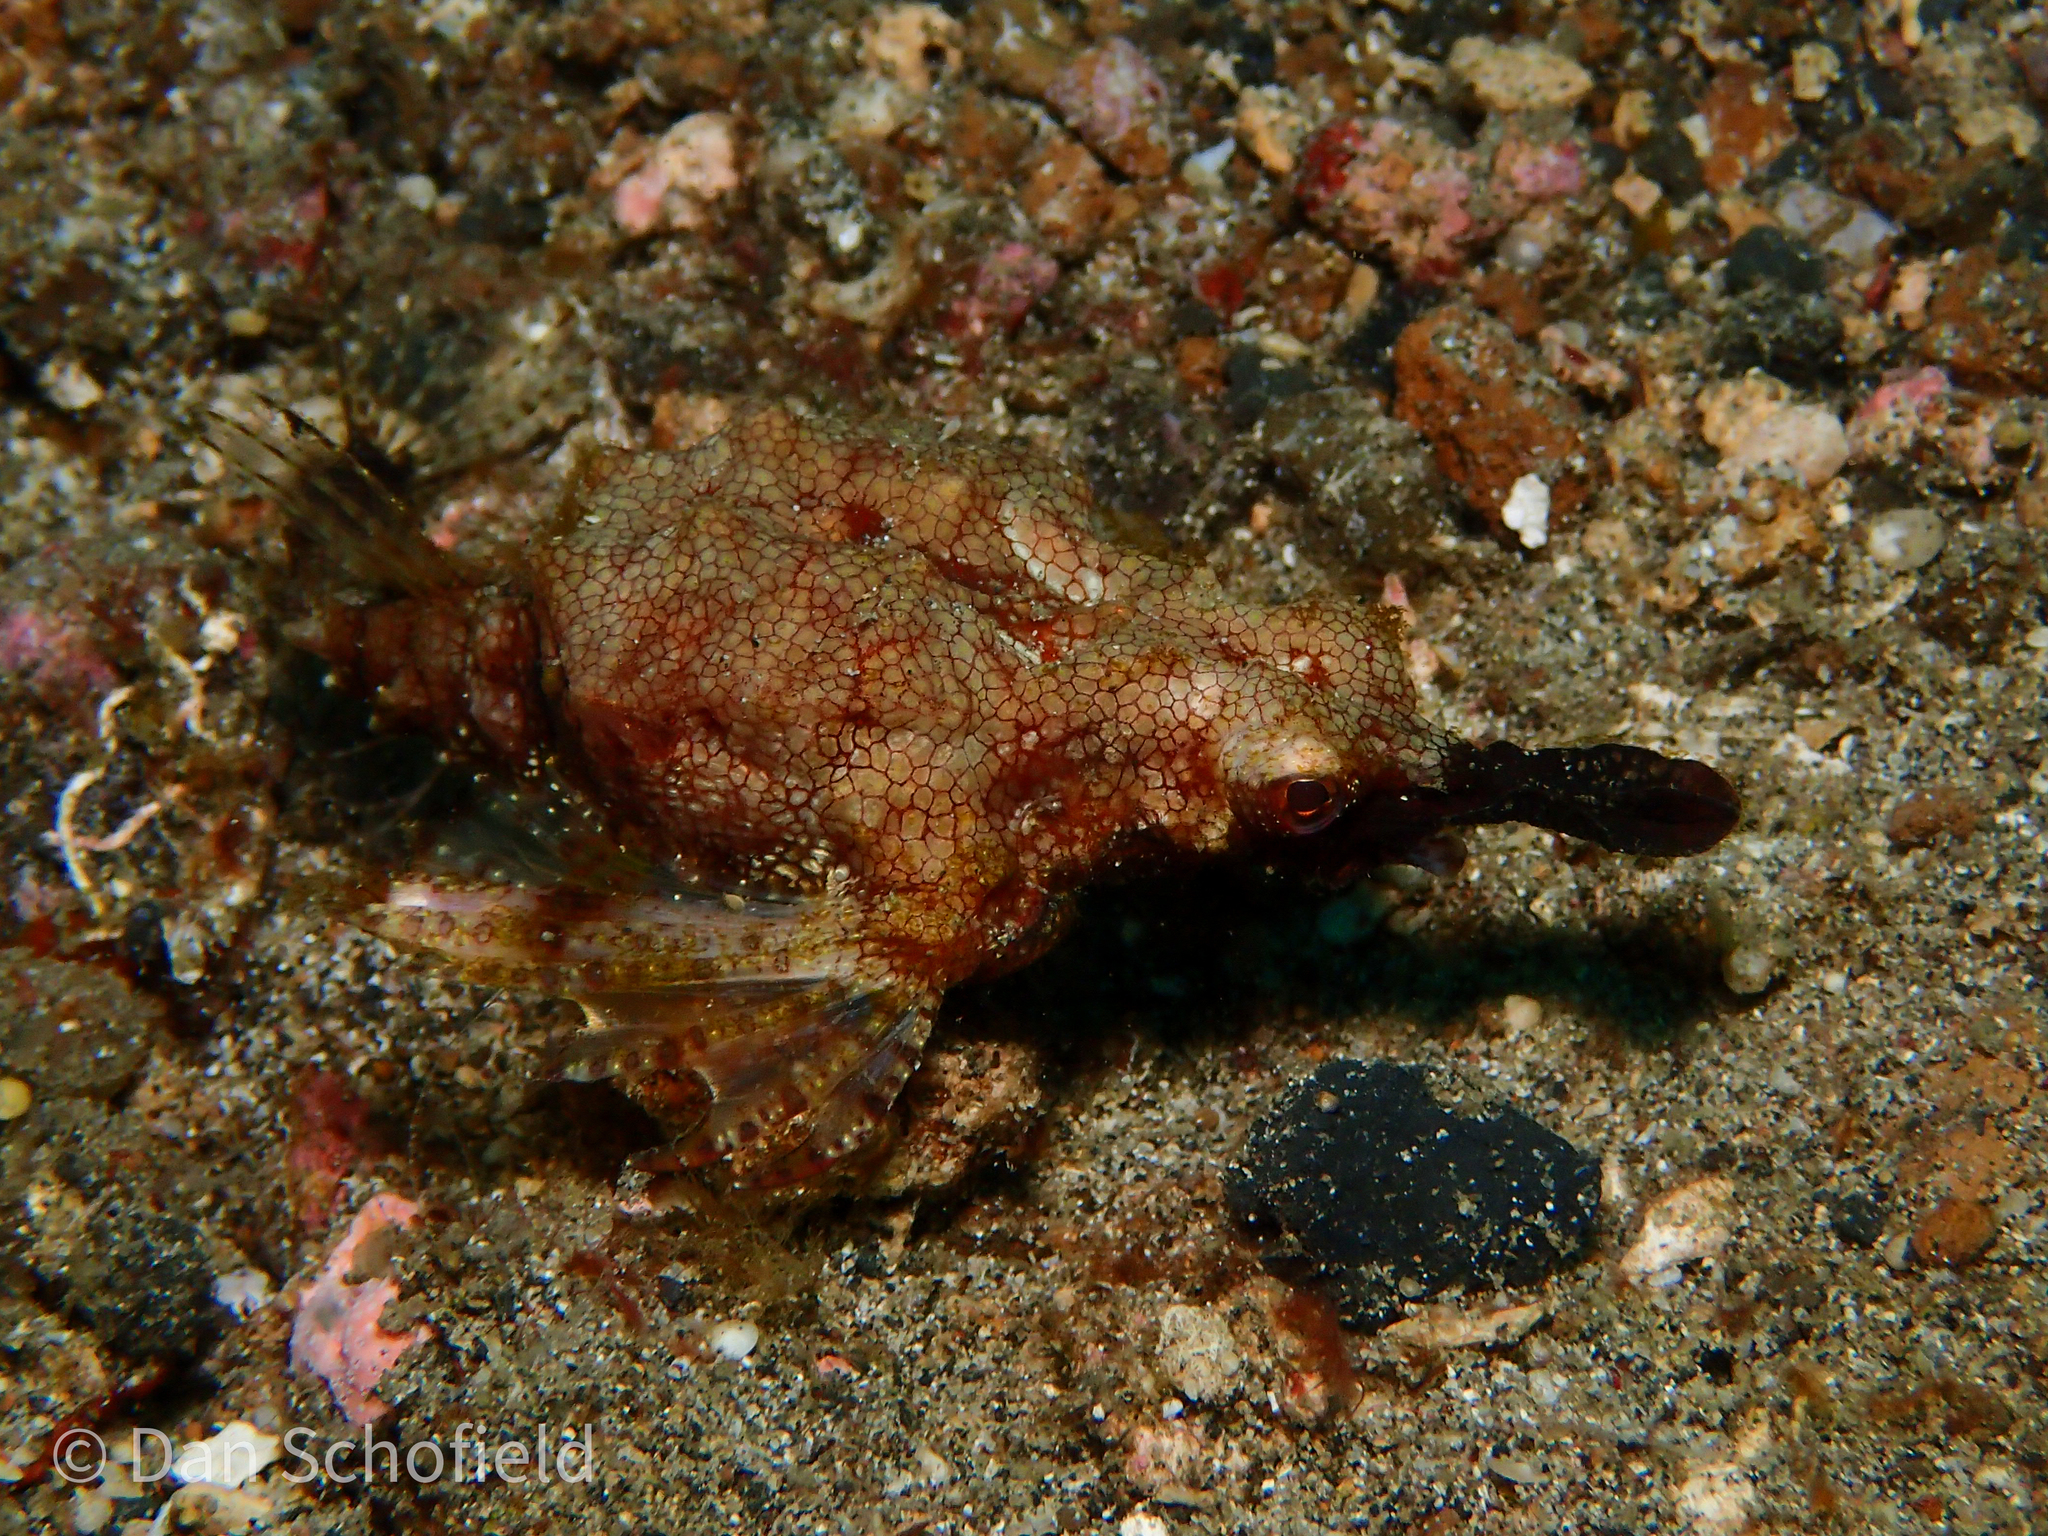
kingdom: Animalia
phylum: Chordata
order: Gasterosteiformes
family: Pegasidae
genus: Eurypegasus
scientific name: Eurypegasus draconis
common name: Short dragonfish
